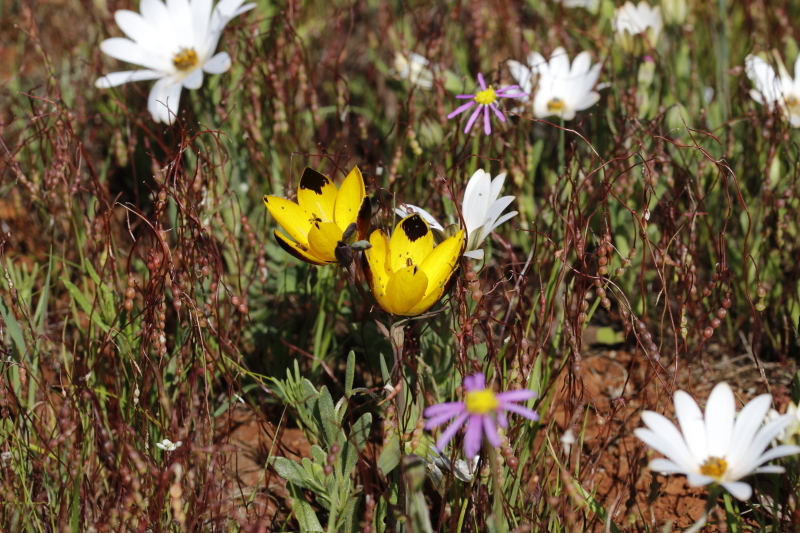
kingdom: Plantae
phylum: Tracheophyta
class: Liliopsida
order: Asparagales
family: Iridaceae
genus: Hesperantha
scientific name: Hesperantha vaginata
